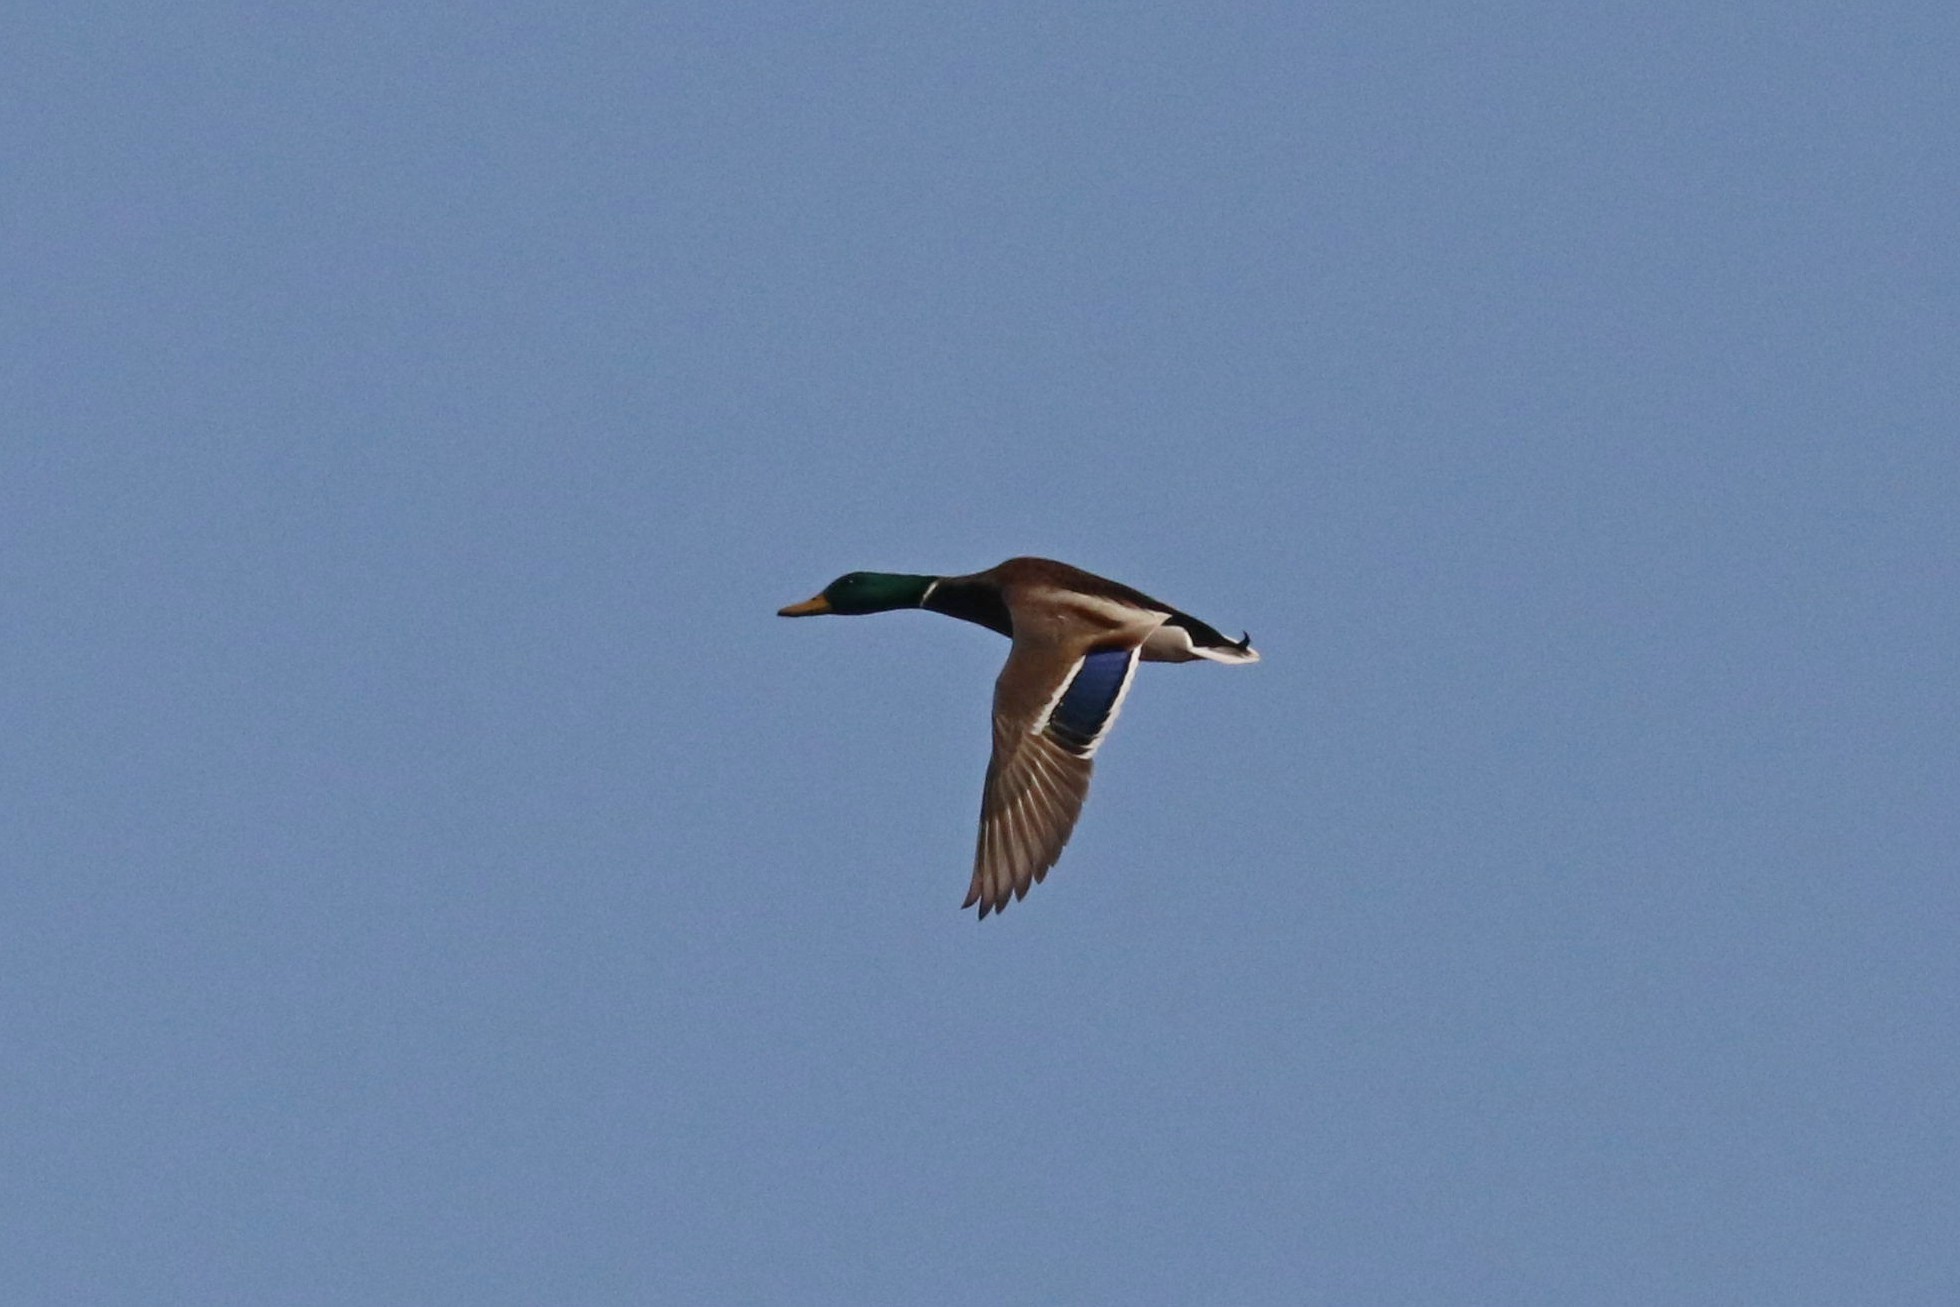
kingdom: Animalia
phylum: Chordata
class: Aves
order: Anseriformes
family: Anatidae
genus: Anas
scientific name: Anas platyrhynchos
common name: Mallard
